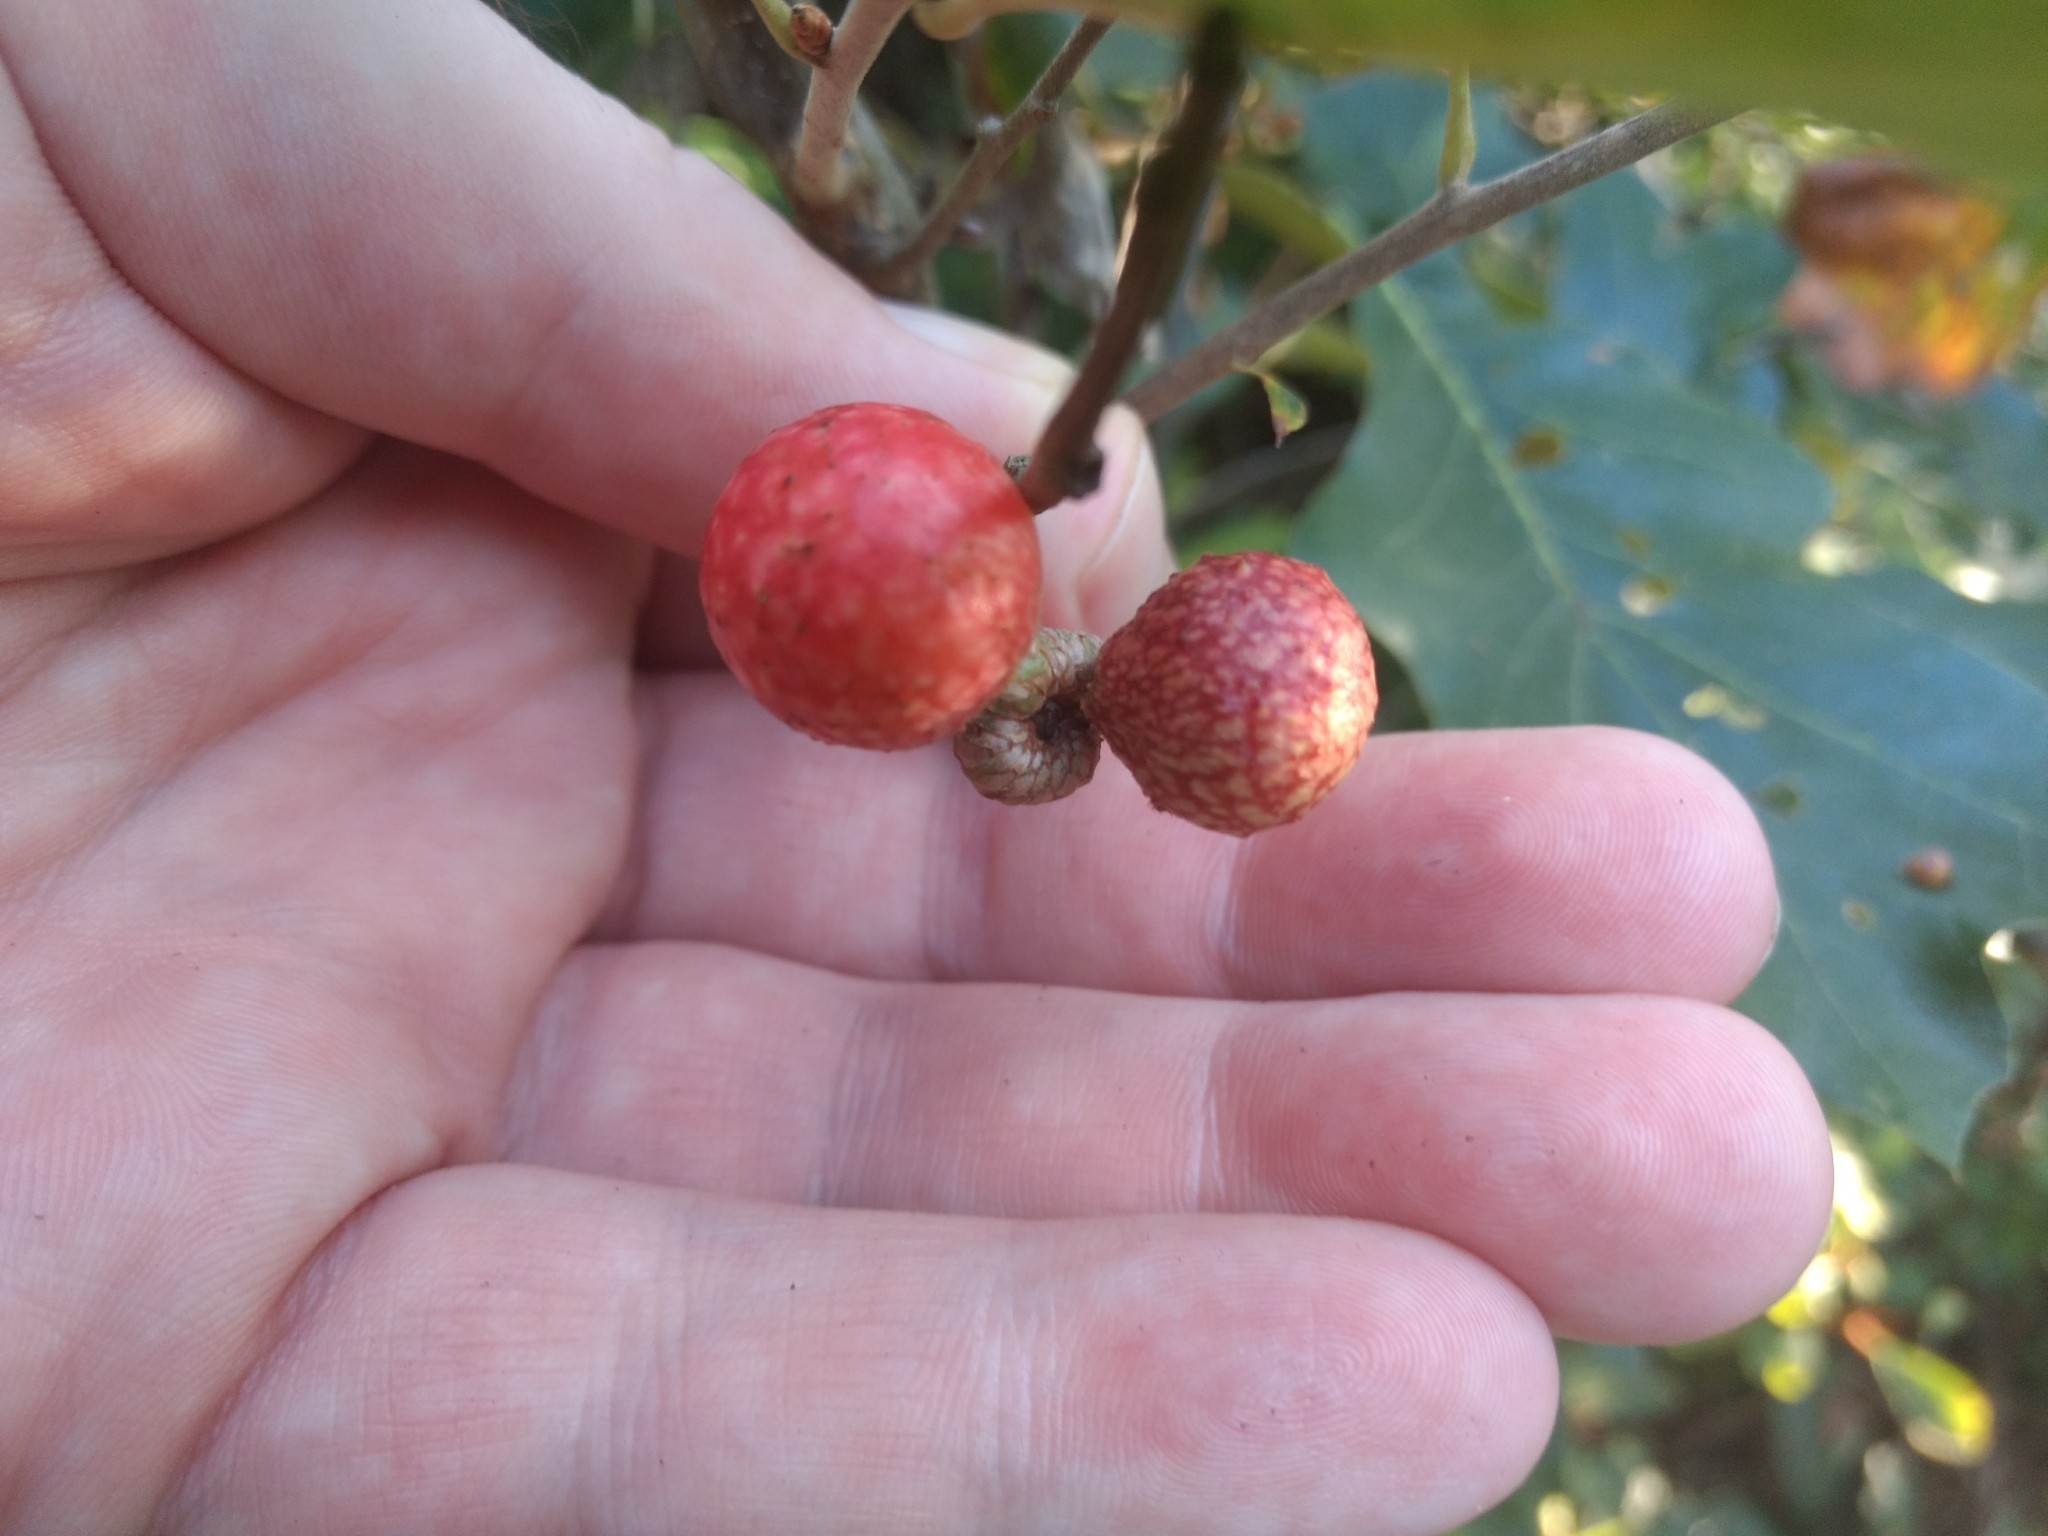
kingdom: Animalia
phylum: Arthropoda
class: Insecta
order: Hymenoptera
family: Cynipidae
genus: Amphibolips
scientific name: Amphibolips
